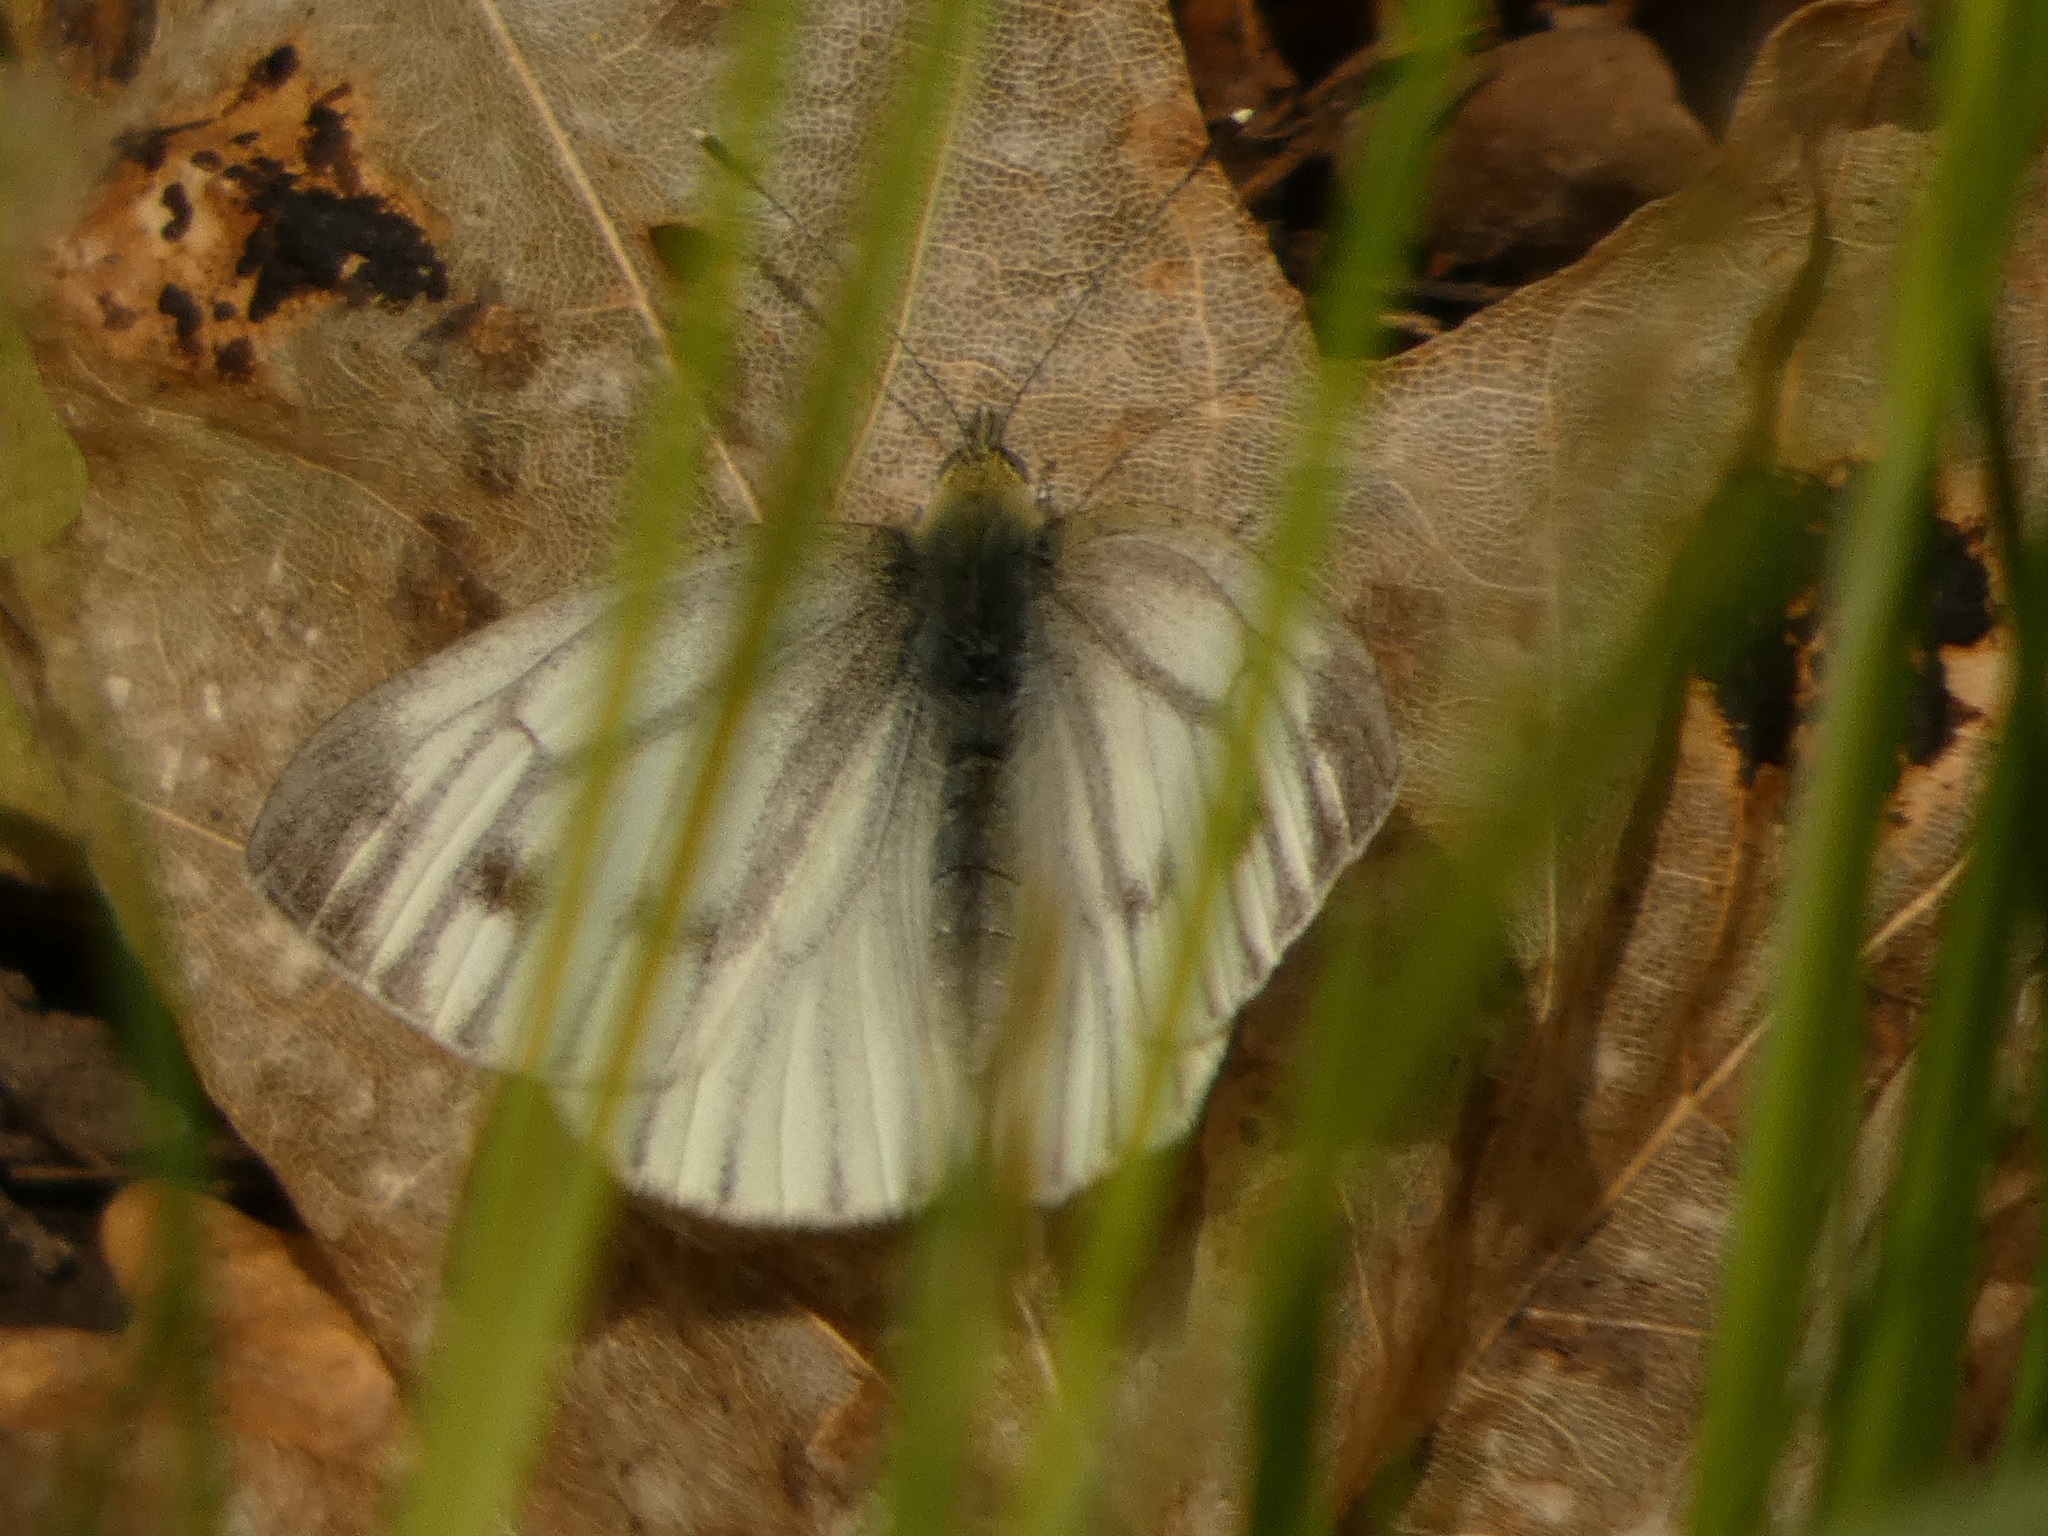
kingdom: Animalia
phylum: Arthropoda
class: Insecta
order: Lepidoptera
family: Pieridae
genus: Pieris
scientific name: Pieris napi
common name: Green-veined white
